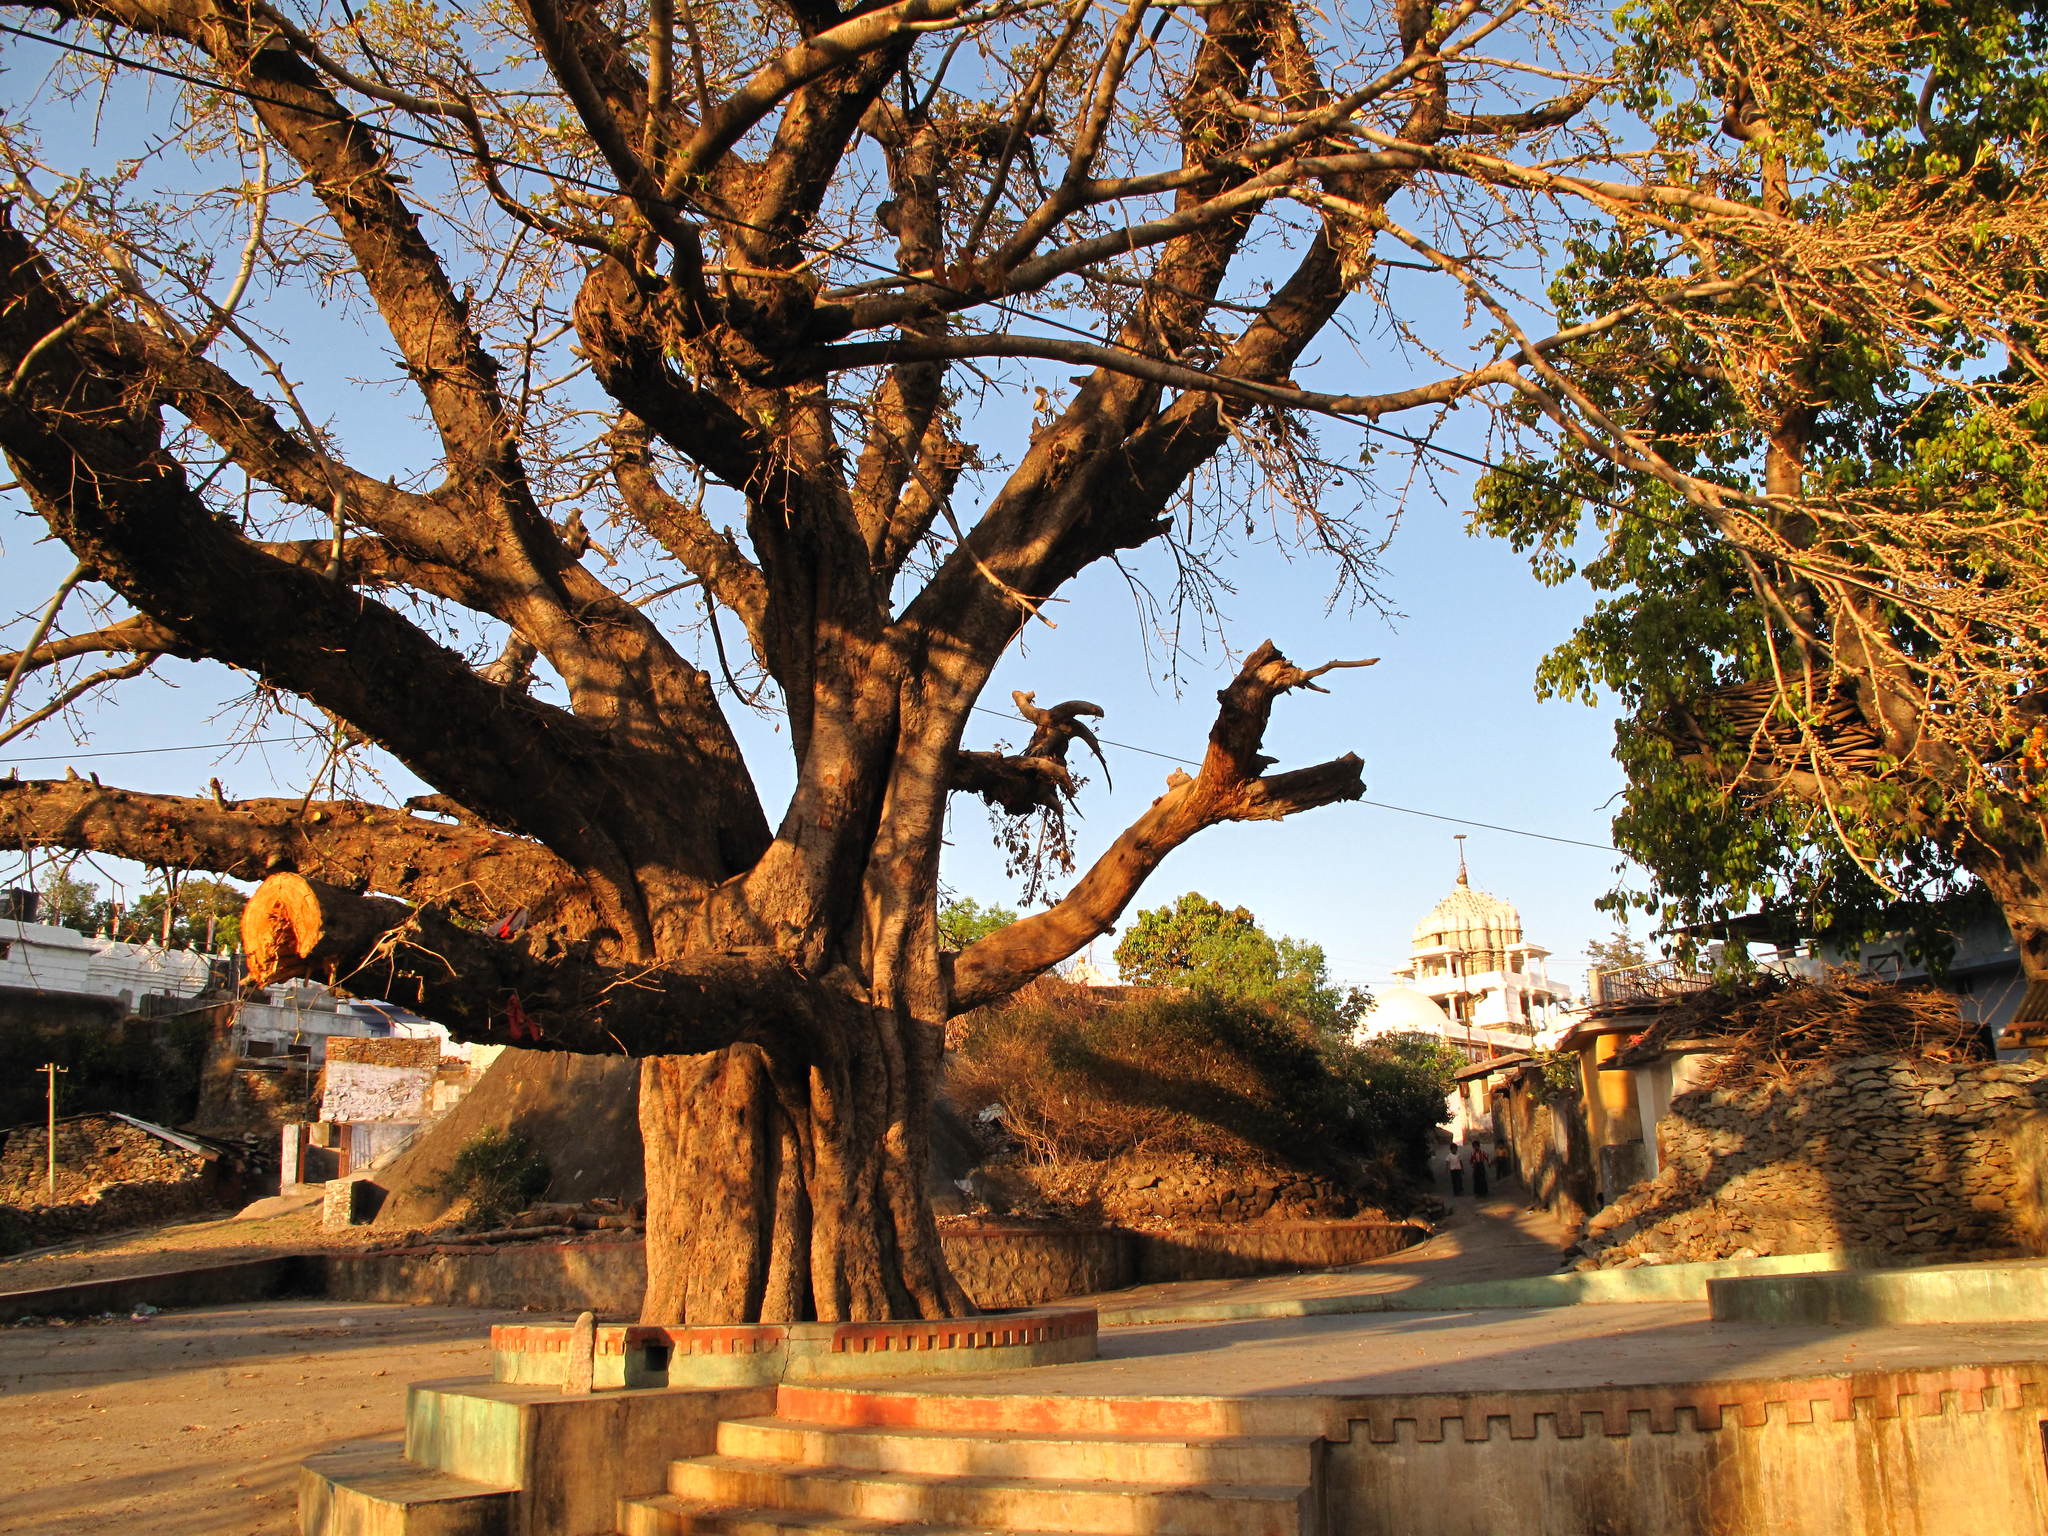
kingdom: Plantae
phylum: Tracheophyta
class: Magnoliopsida
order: Rosales
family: Moraceae
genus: Ficus
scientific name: Ficus religiosa
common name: Bodhi tree
